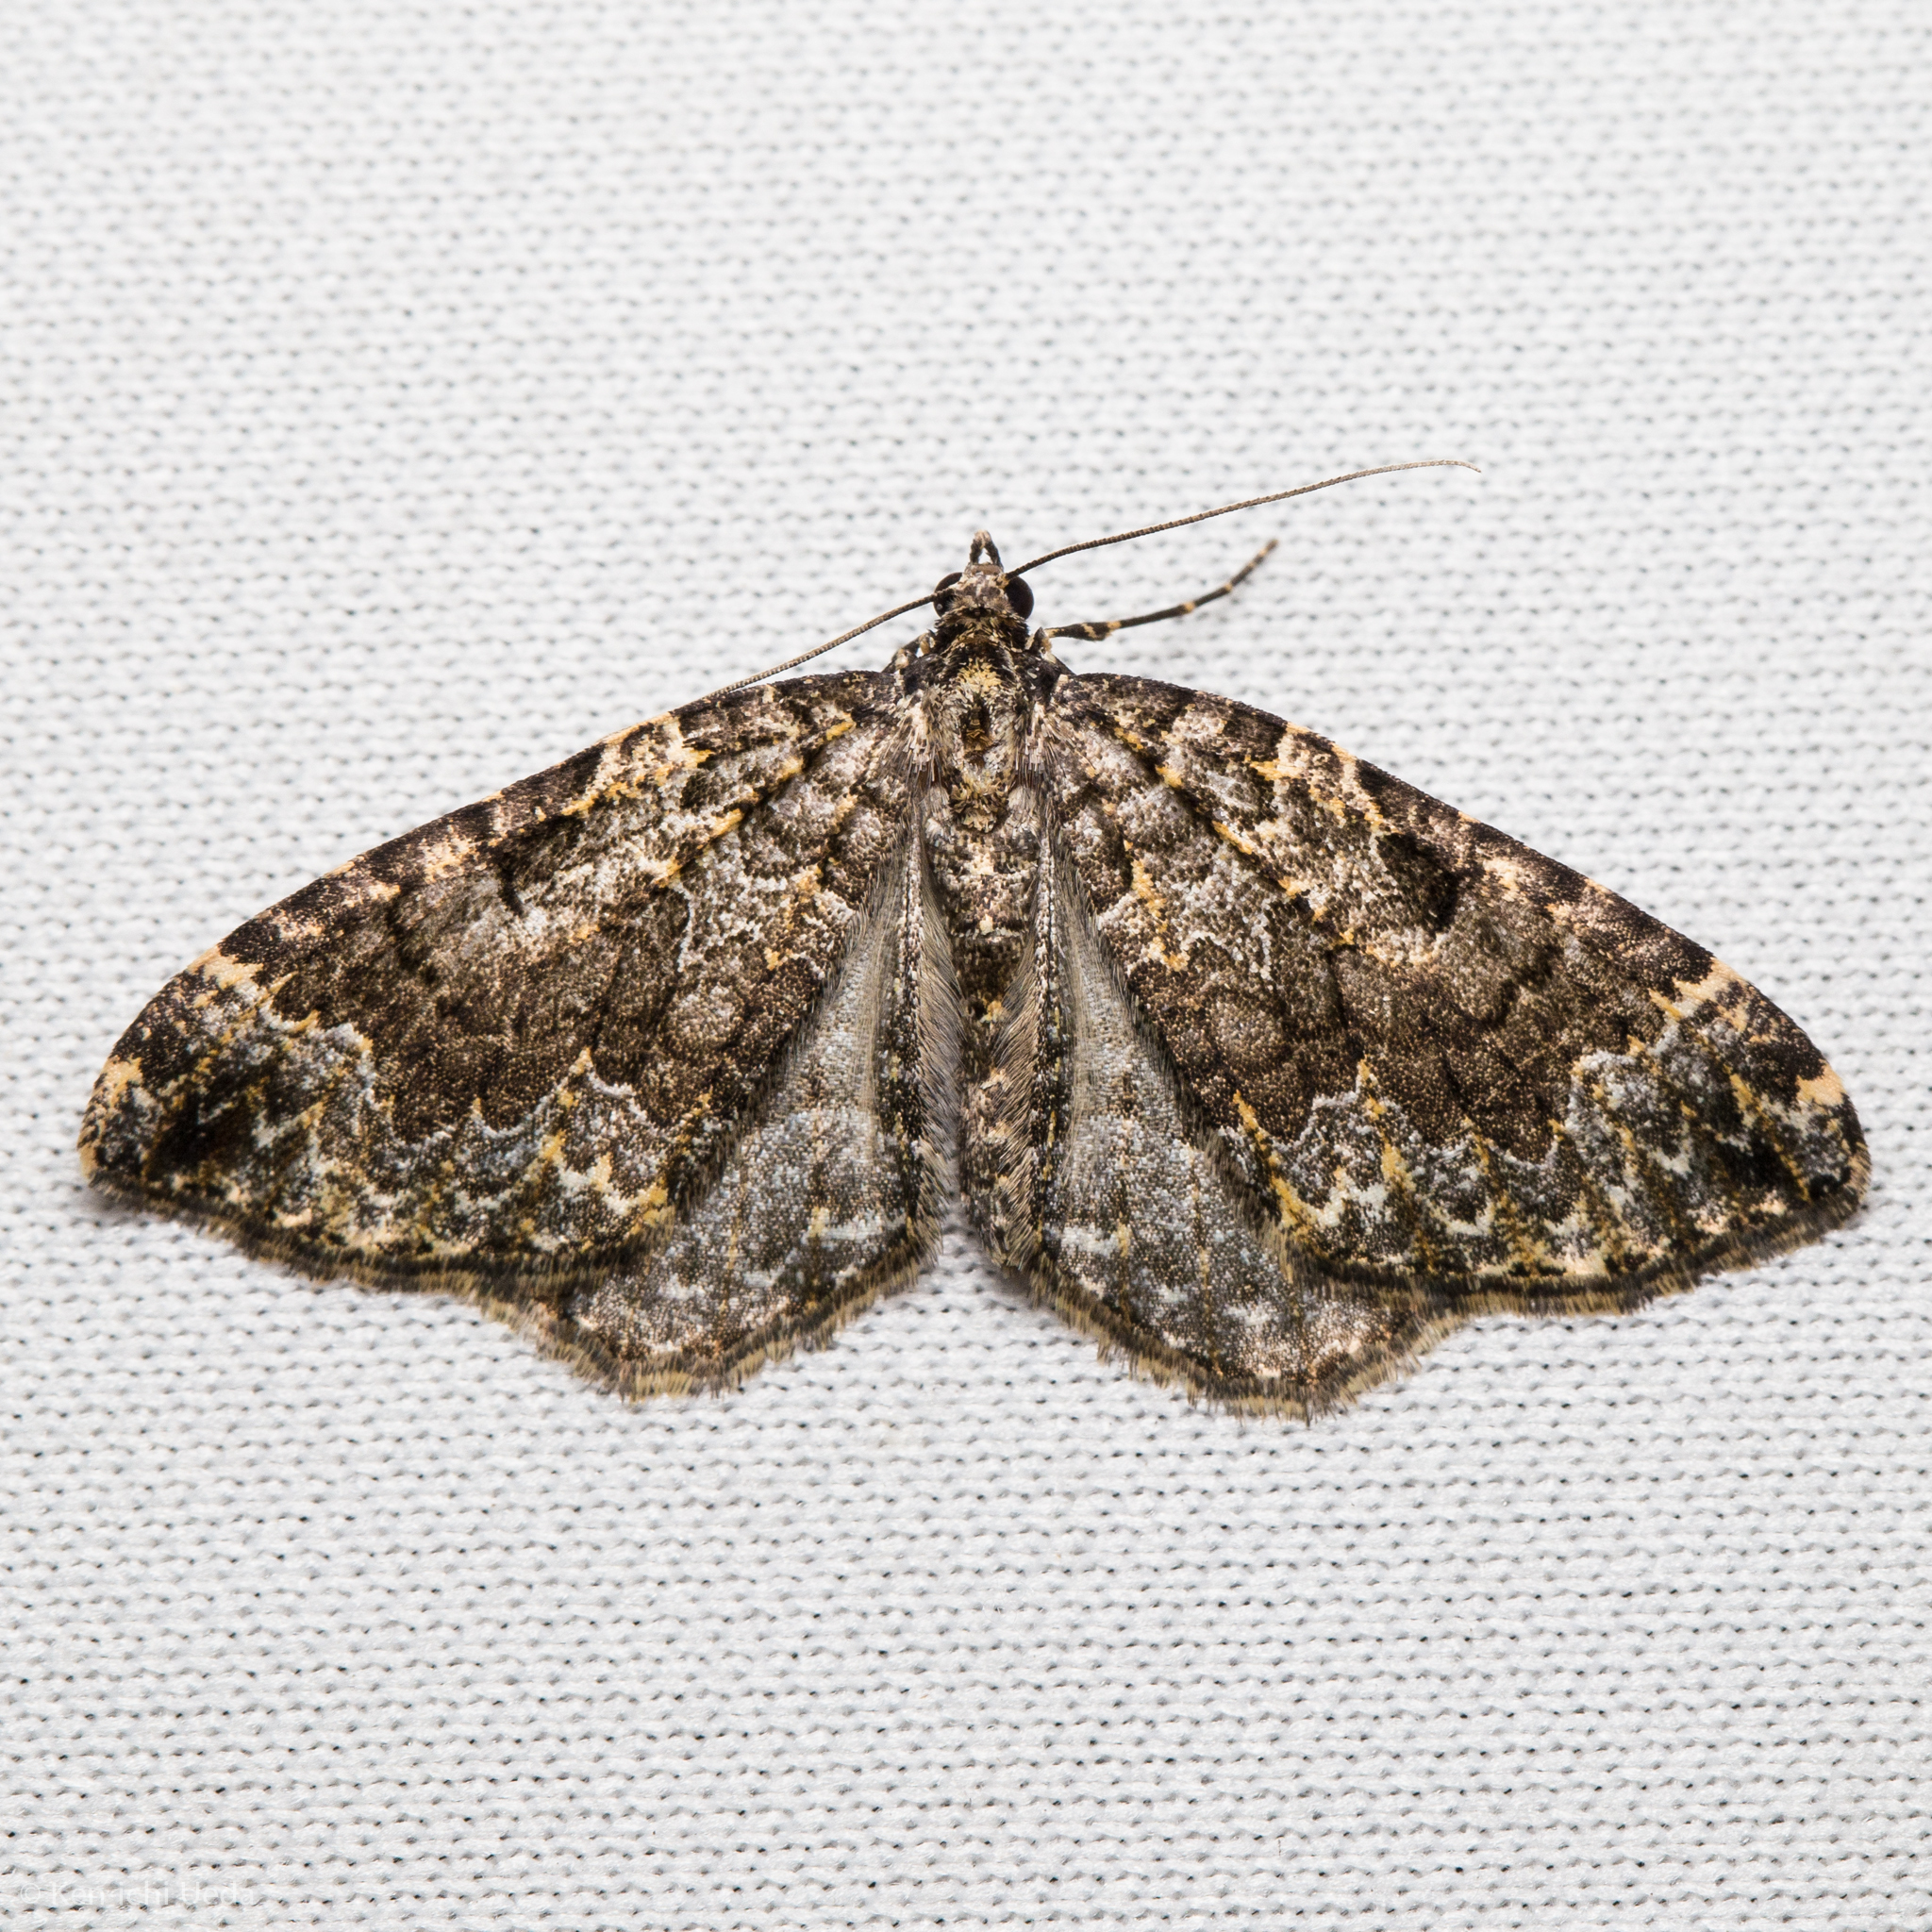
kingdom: Animalia
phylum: Arthropoda
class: Insecta
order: Lepidoptera
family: Geometridae
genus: Eustroma
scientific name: Eustroma semiatrata
